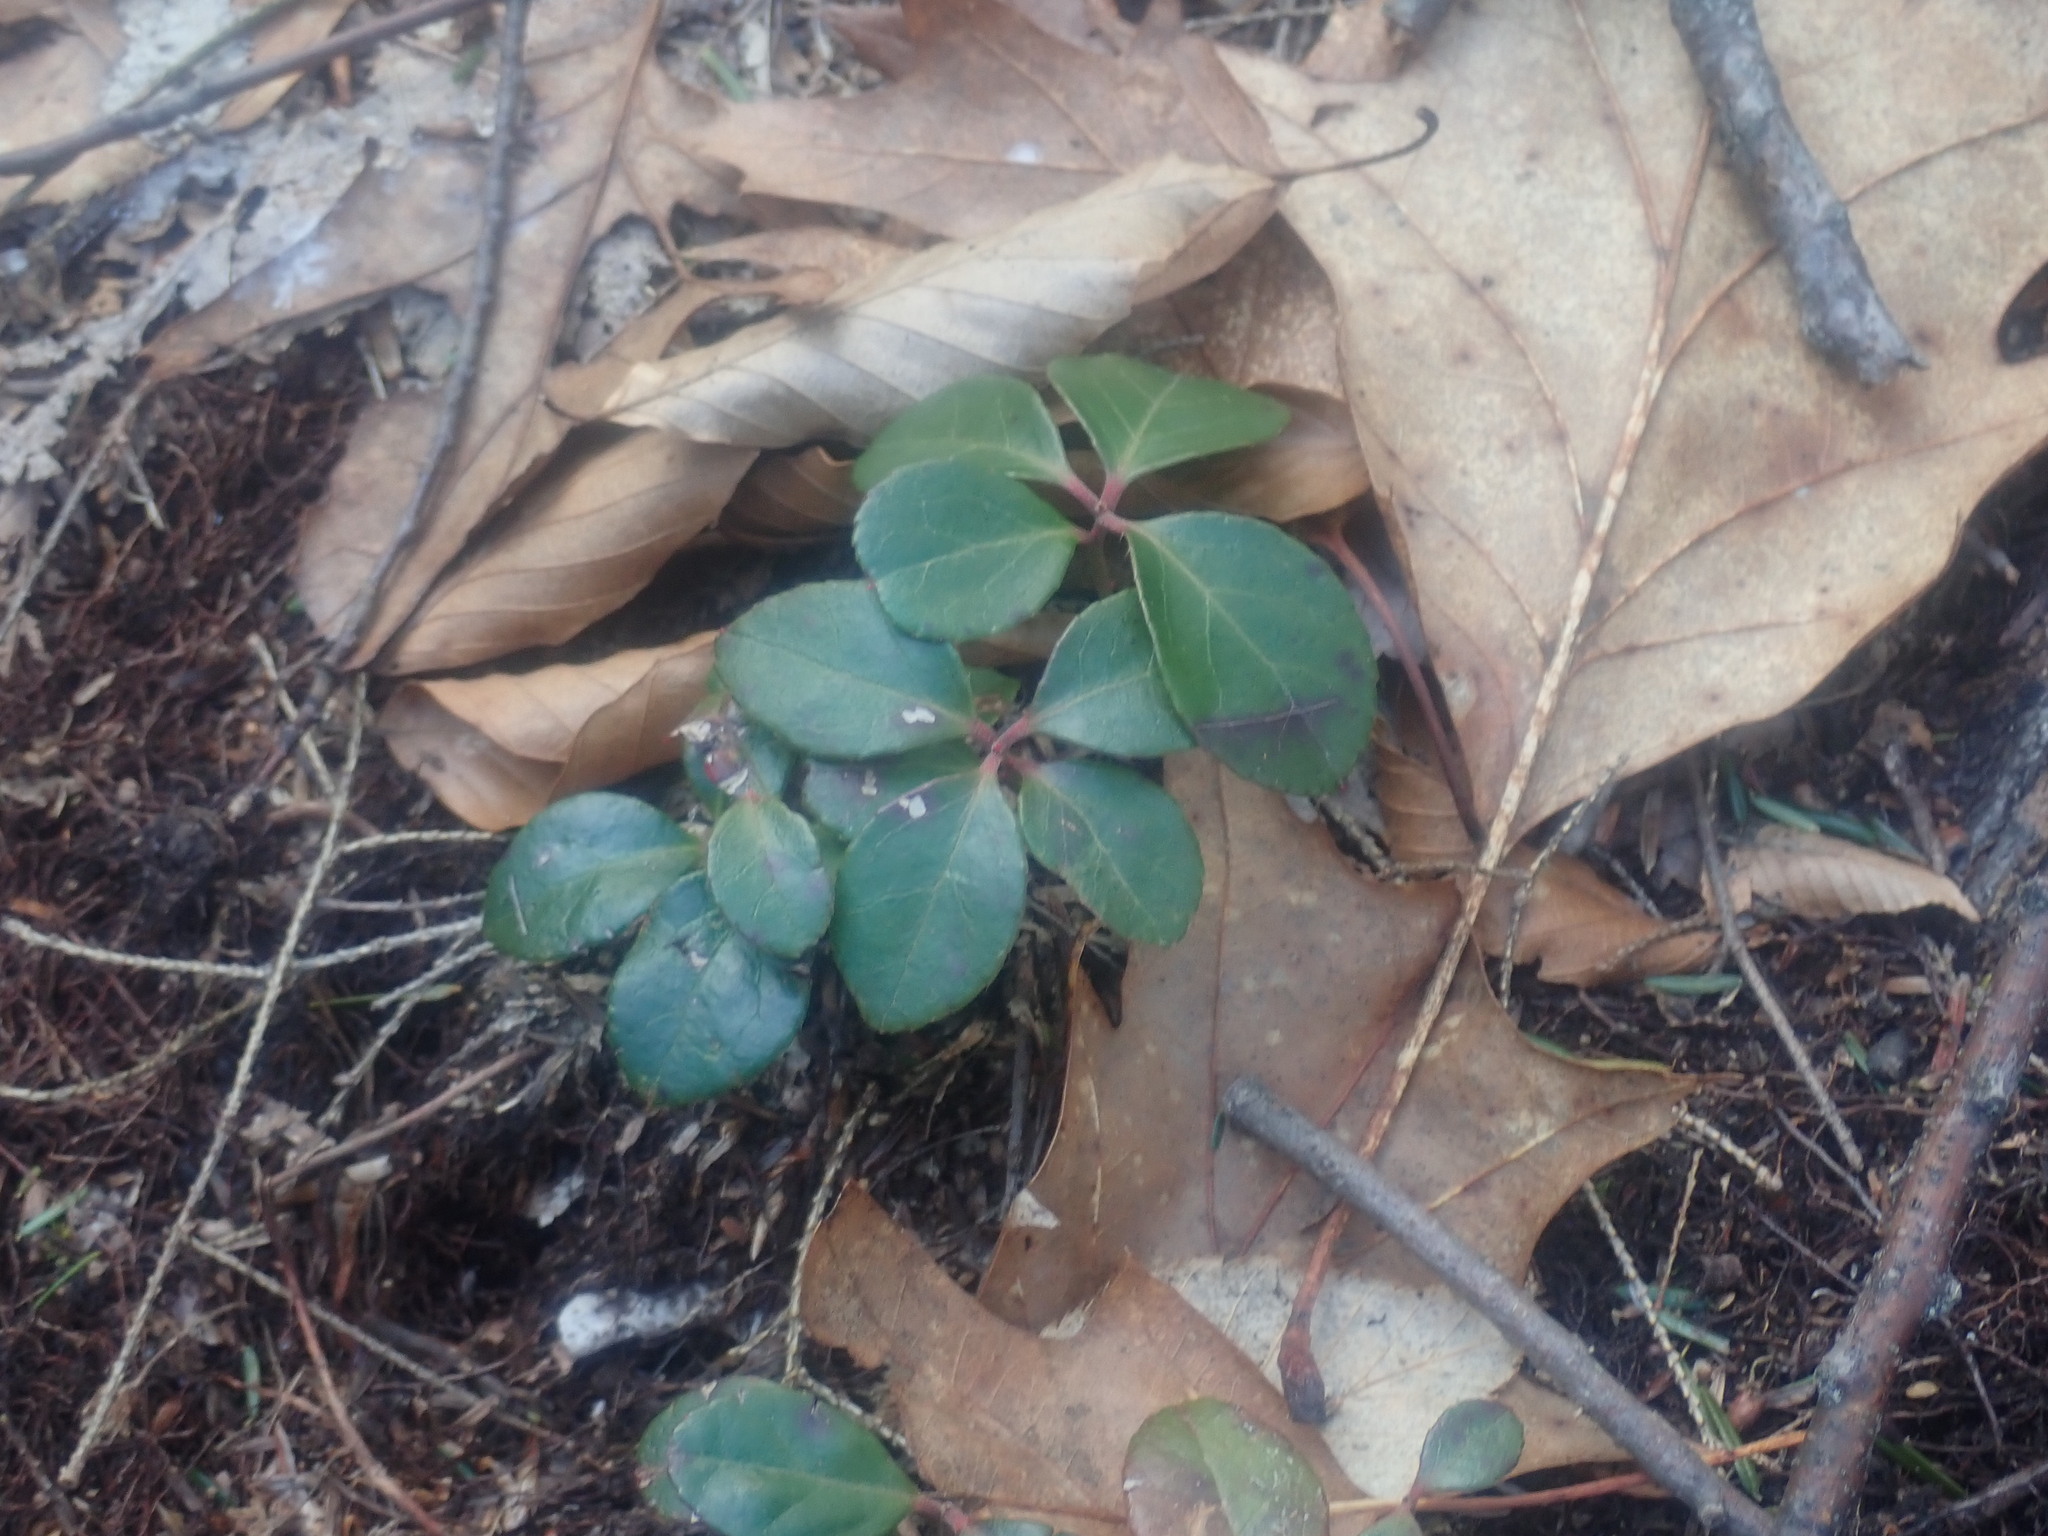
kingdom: Plantae
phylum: Tracheophyta
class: Magnoliopsida
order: Ericales
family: Ericaceae
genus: Gaultheria
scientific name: Gaultheria procumbens
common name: Checkerberry
